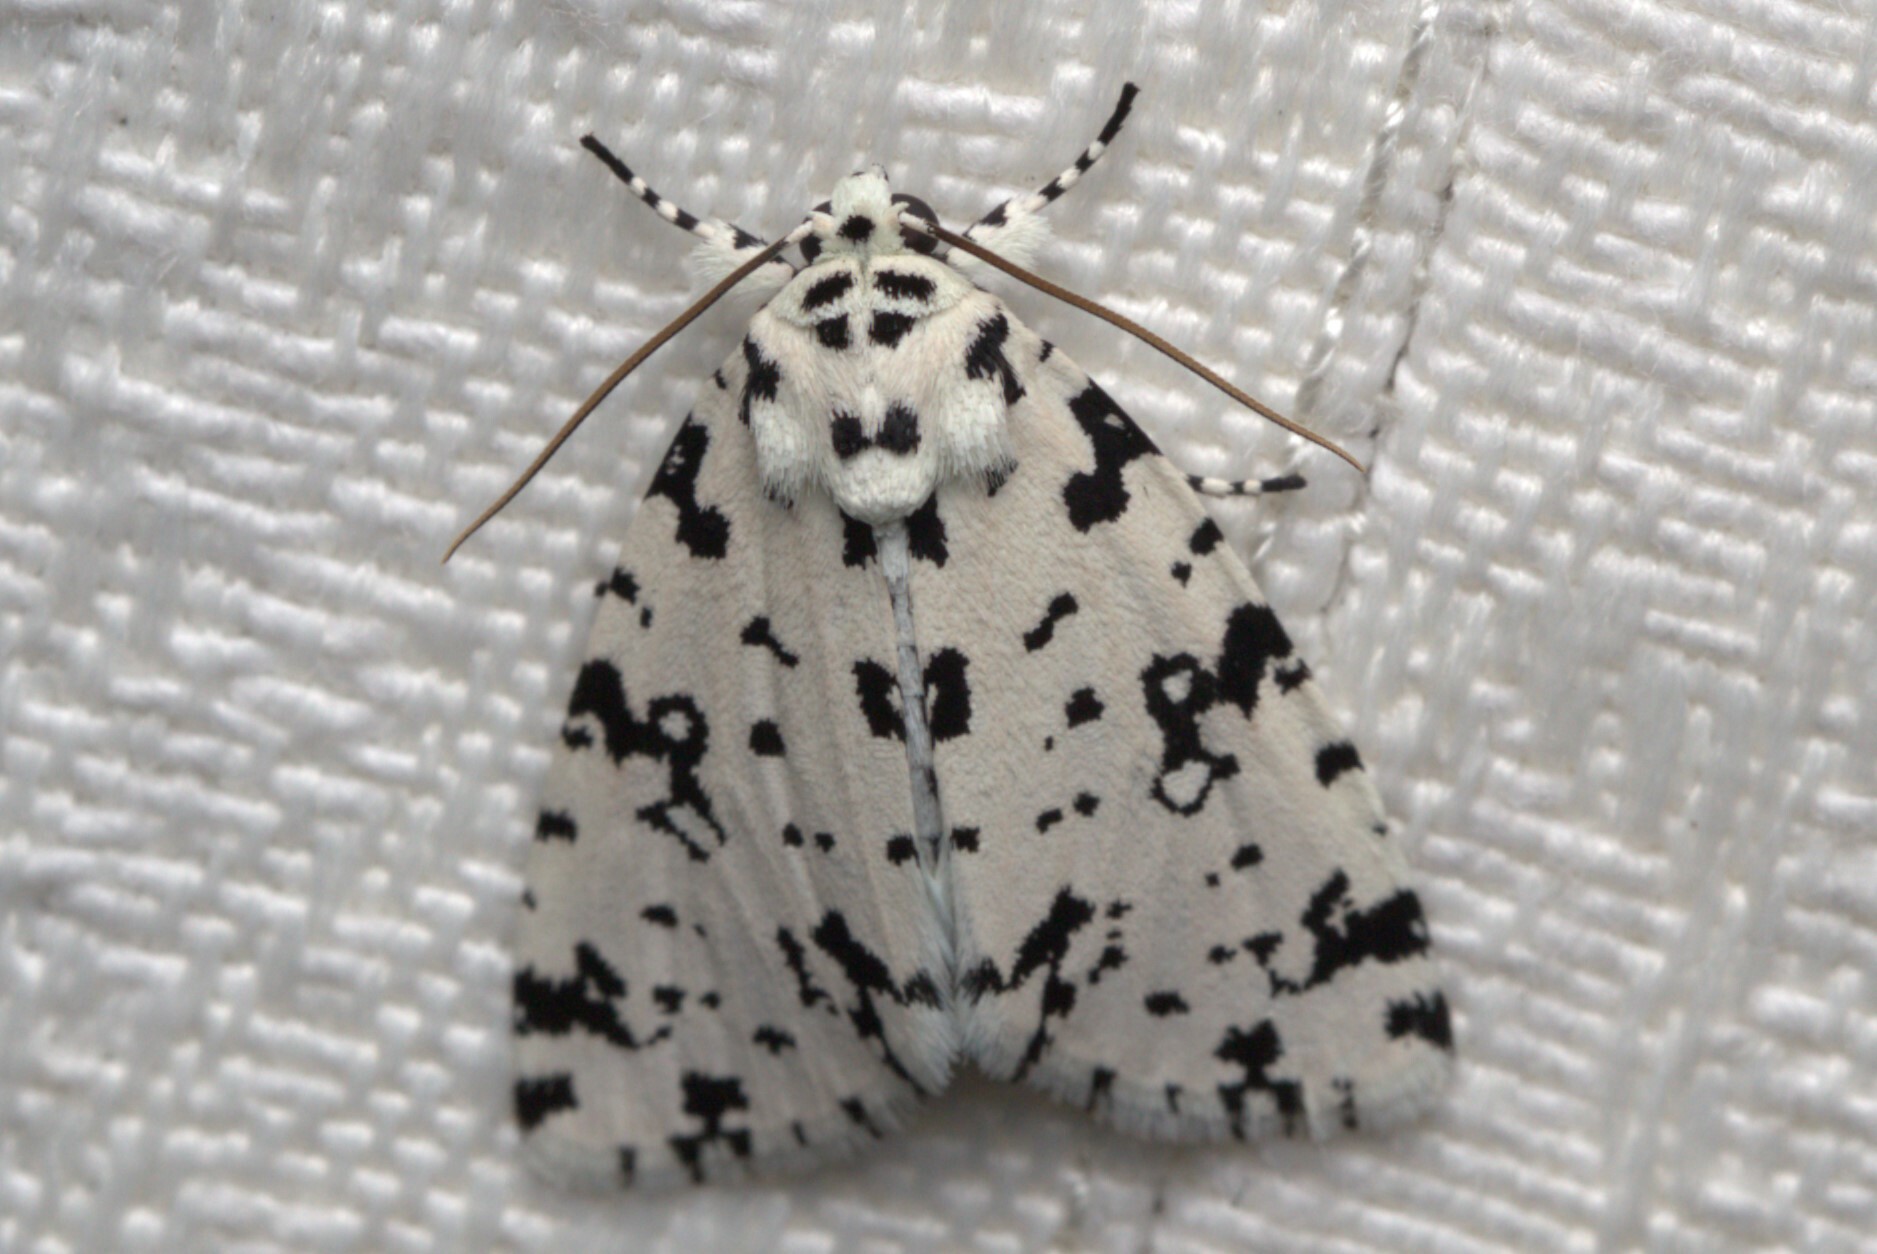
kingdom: Animalia
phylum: Arthropoda
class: Insecta
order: Lepidoptera
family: Noctuidae
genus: Thalatha
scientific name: Thalatha guttalis
